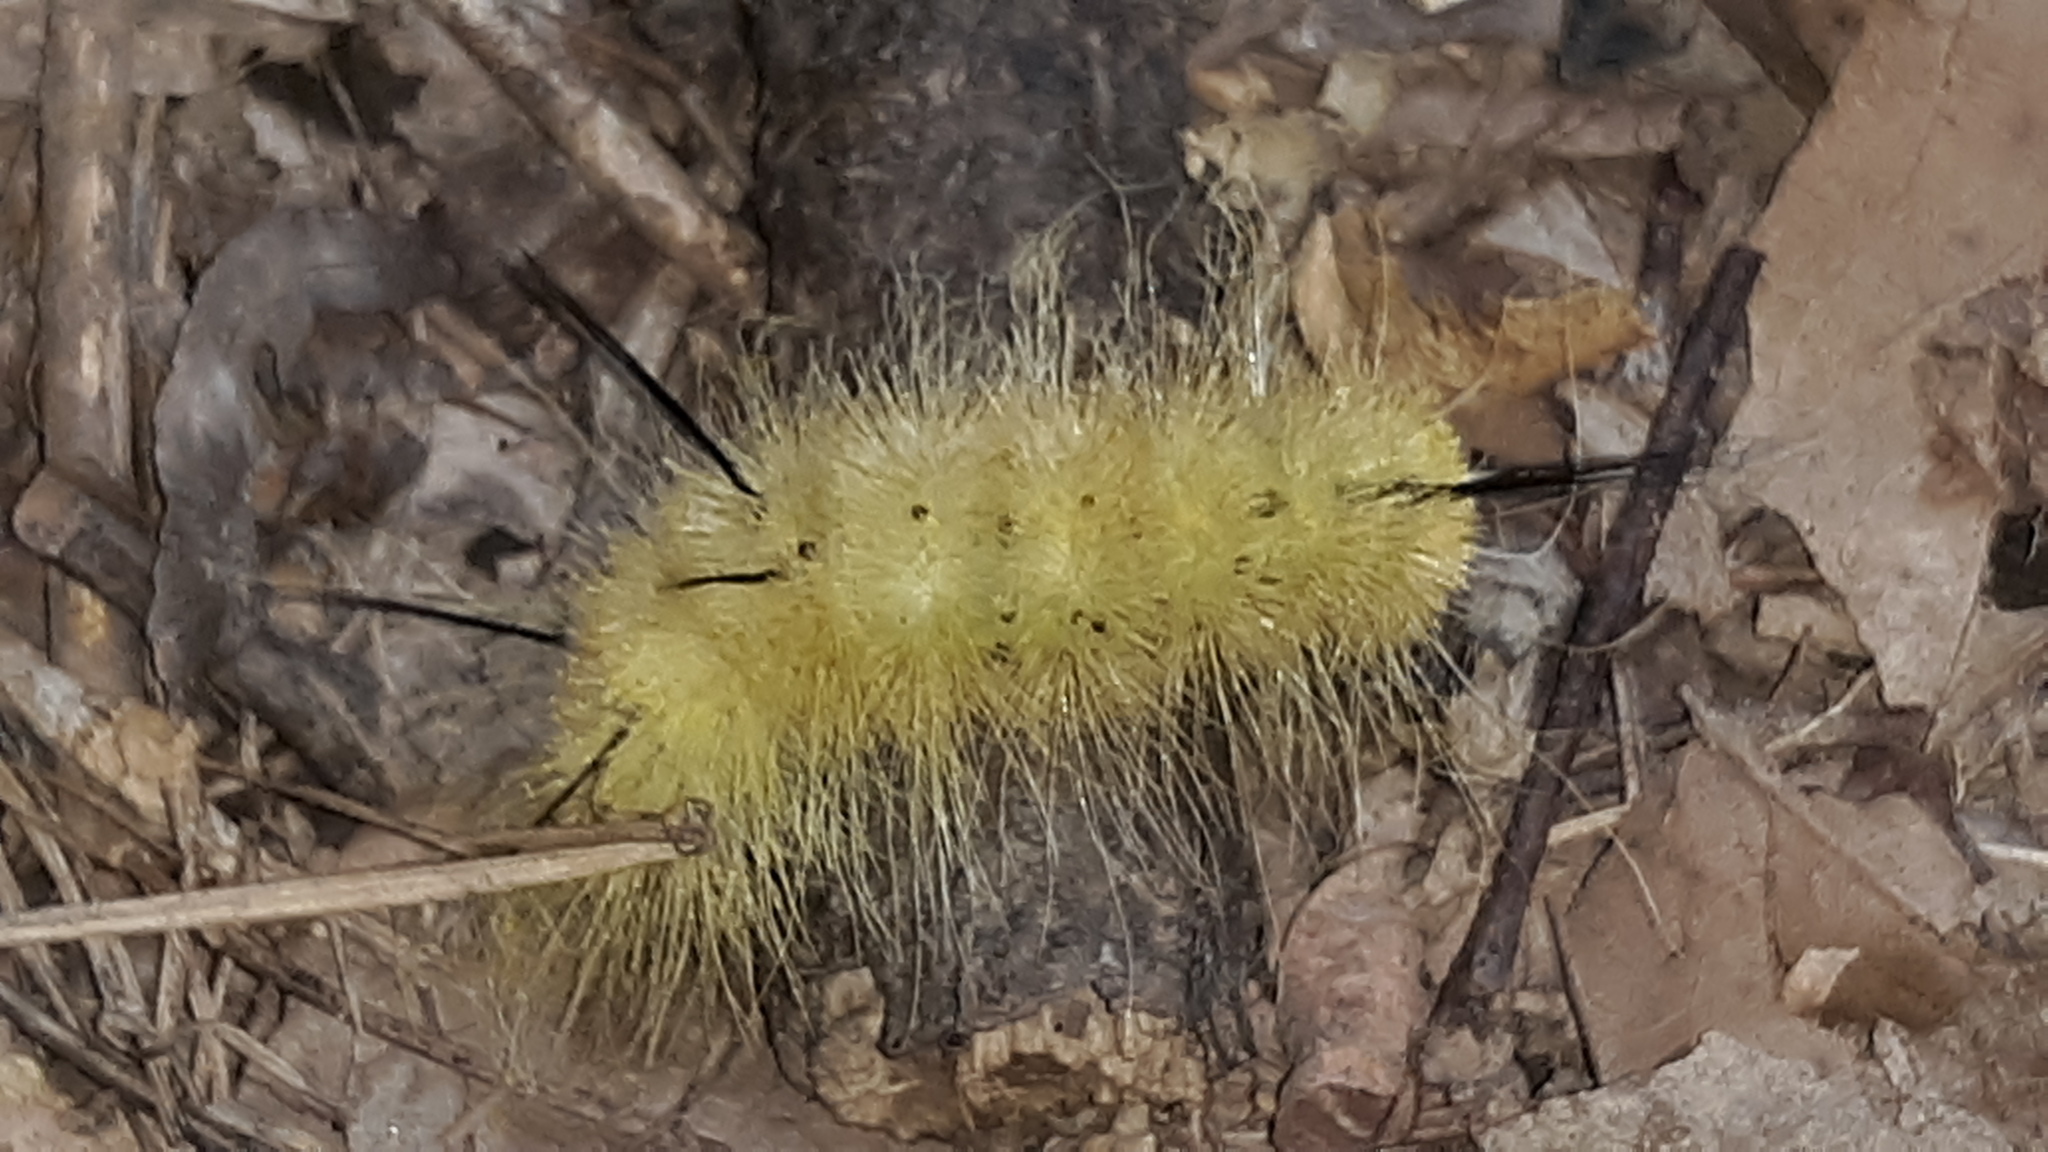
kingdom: Animalia
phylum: Arthropoda
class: Insecta
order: Lepidoptera
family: Noctuidae
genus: Acronicta
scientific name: Acronicta americana
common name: American dagger
